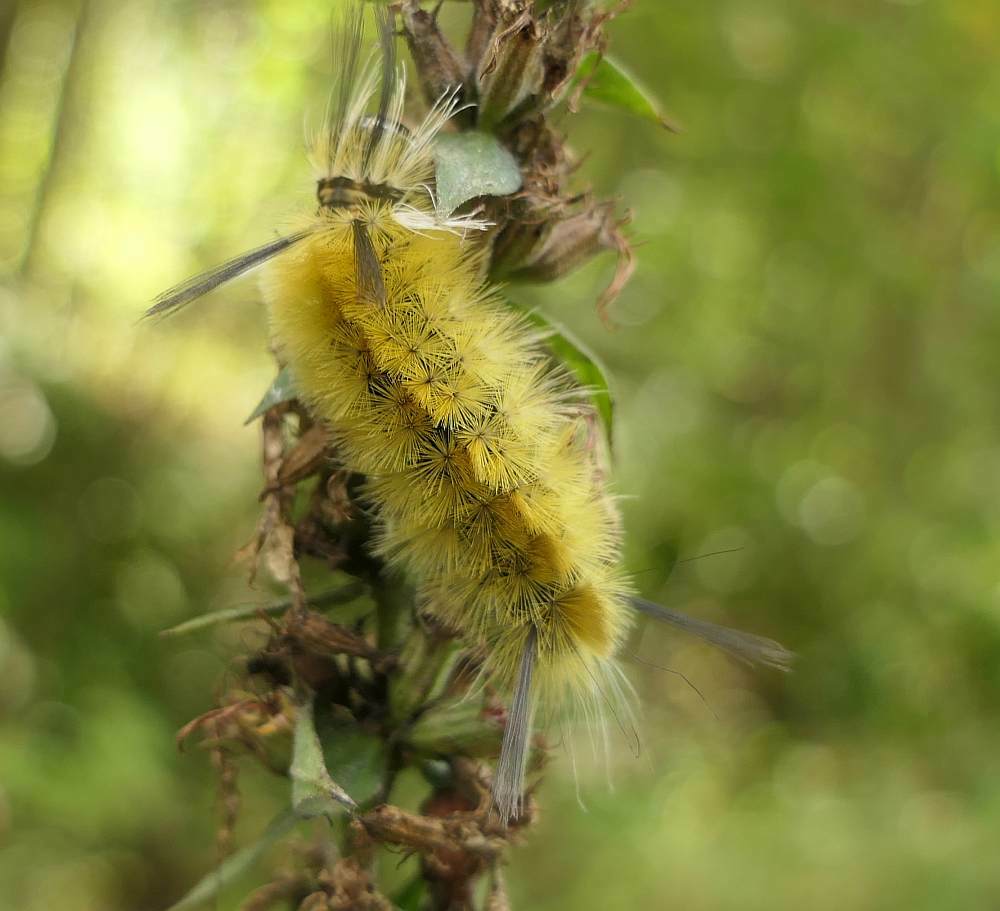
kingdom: Animalia
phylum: Arthropoda
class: Insecta
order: Lepidoptera
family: Erebidae
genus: Halysidota
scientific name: Halysidota tessellaris
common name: Banded tussock moth
